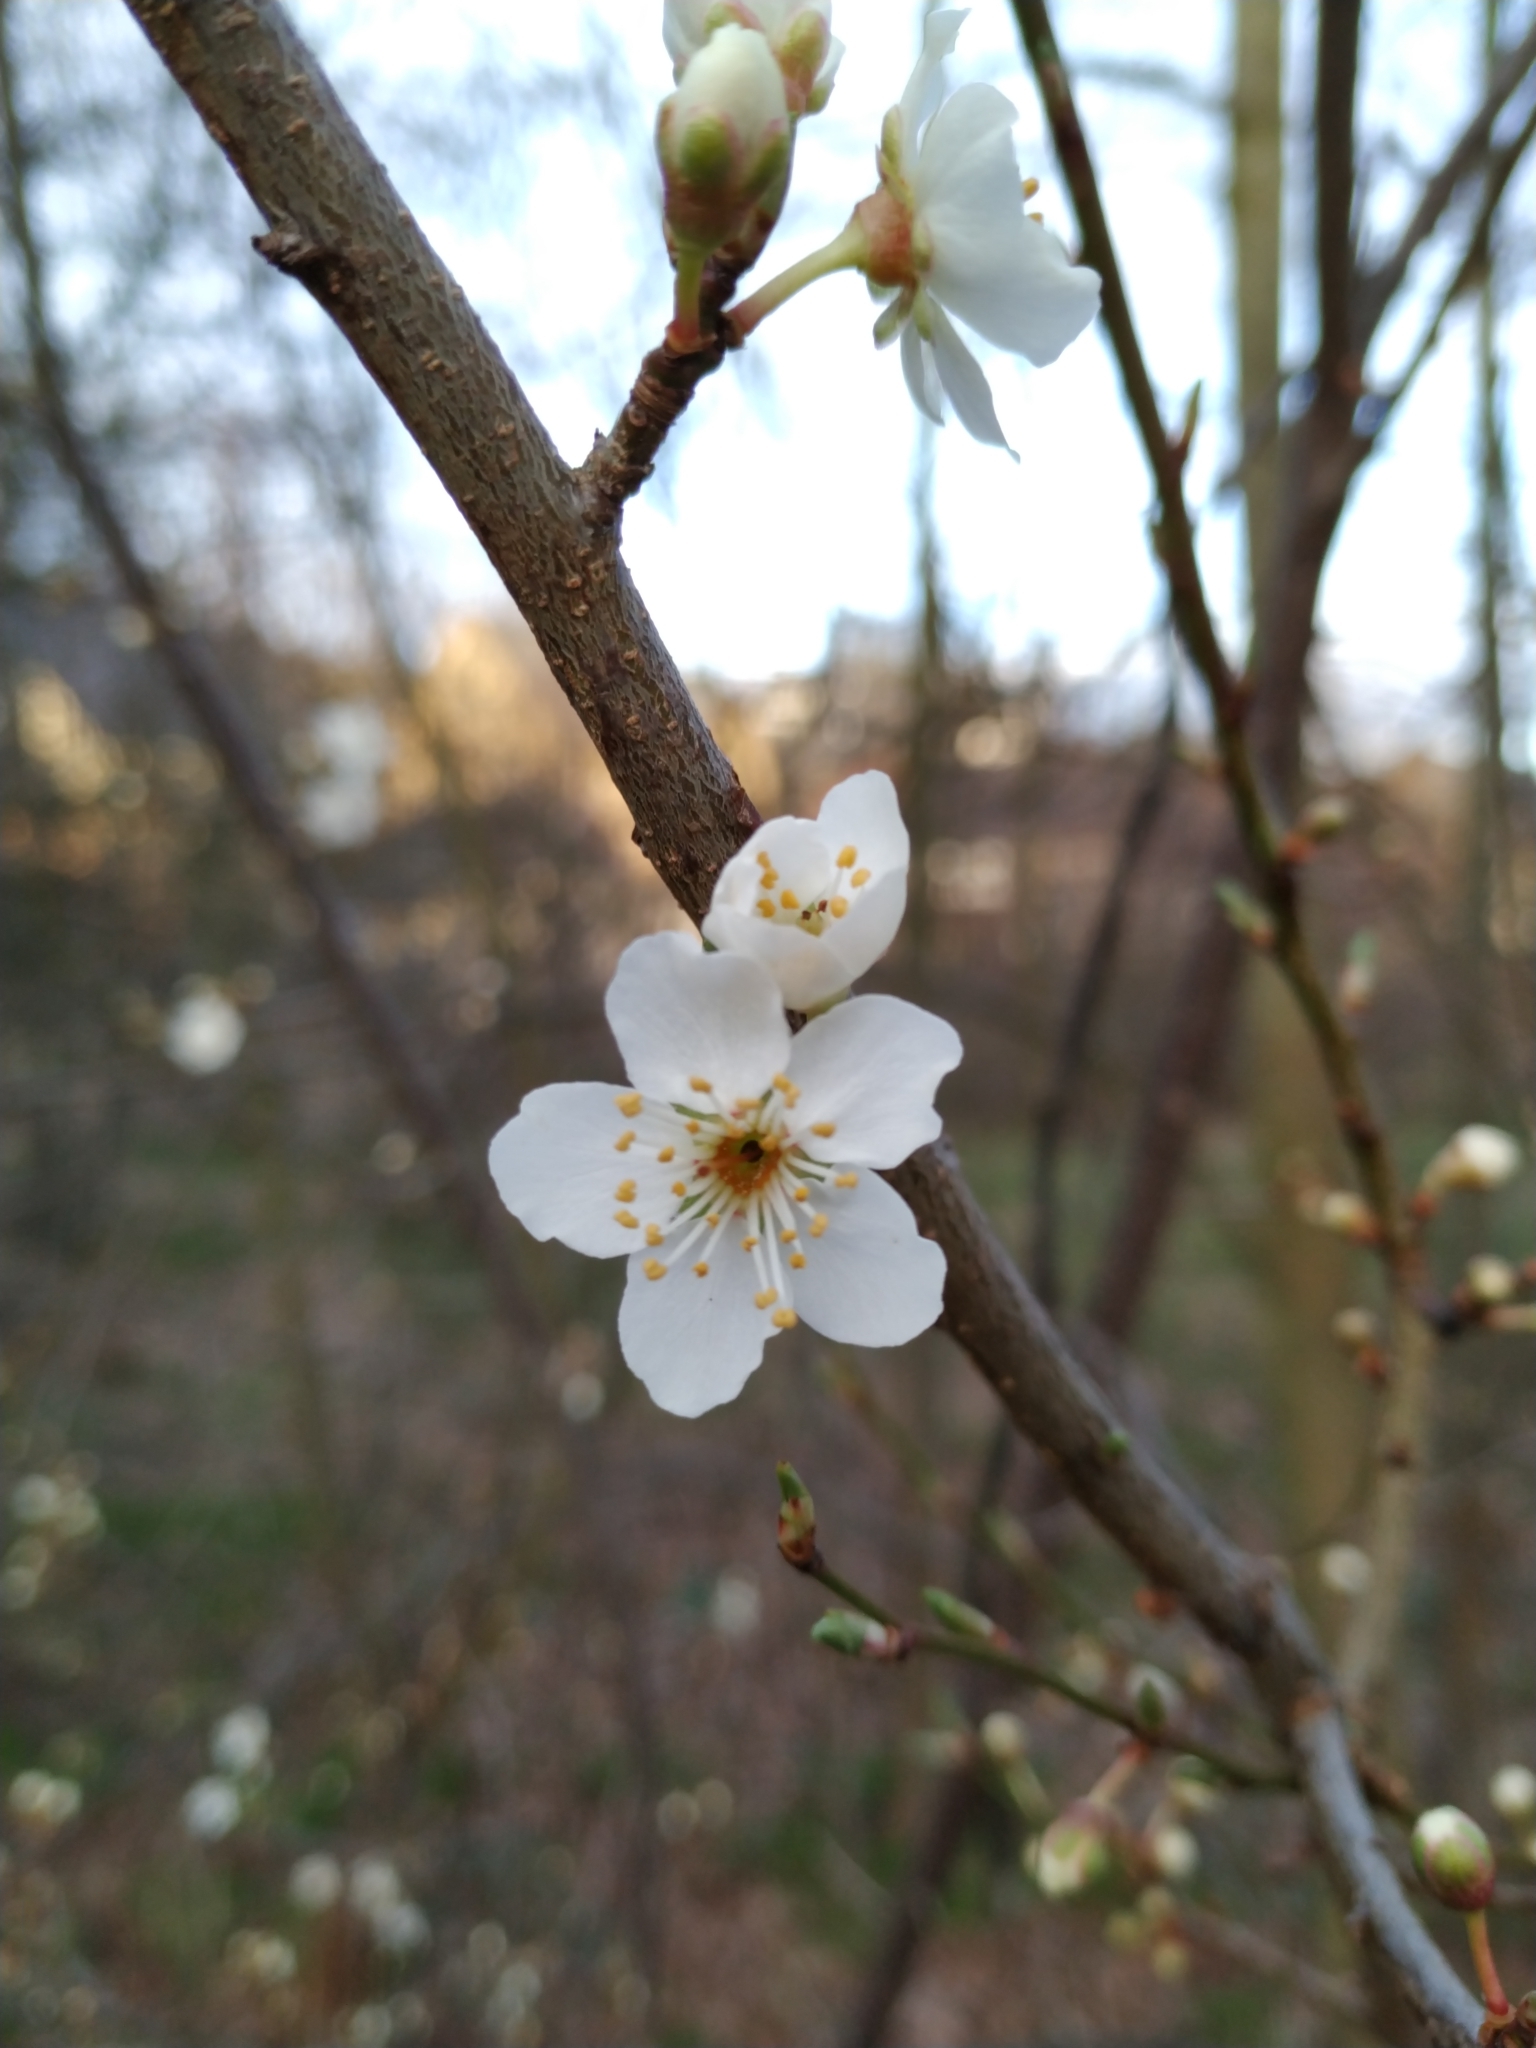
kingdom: Plantae
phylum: Tracheophyta
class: Magnoliopsida
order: Rosales
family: Rosaceae
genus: Prunus
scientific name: Prunus cerasifera
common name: Cherry plum
